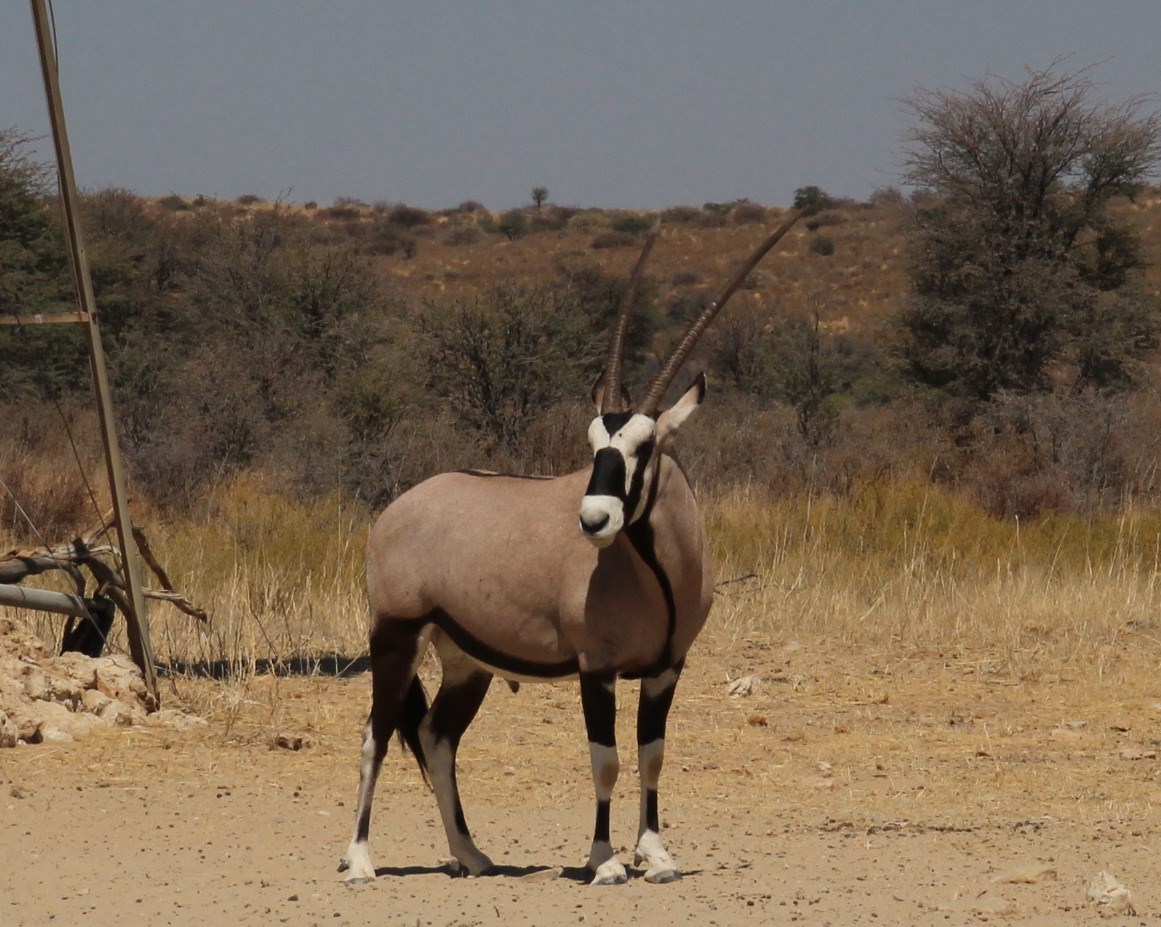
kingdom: Animalia
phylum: Chordata
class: Mammalia
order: Artiodactyla
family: Bovidae
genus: Oryx
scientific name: Oryx gazella
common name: Gemsbok
